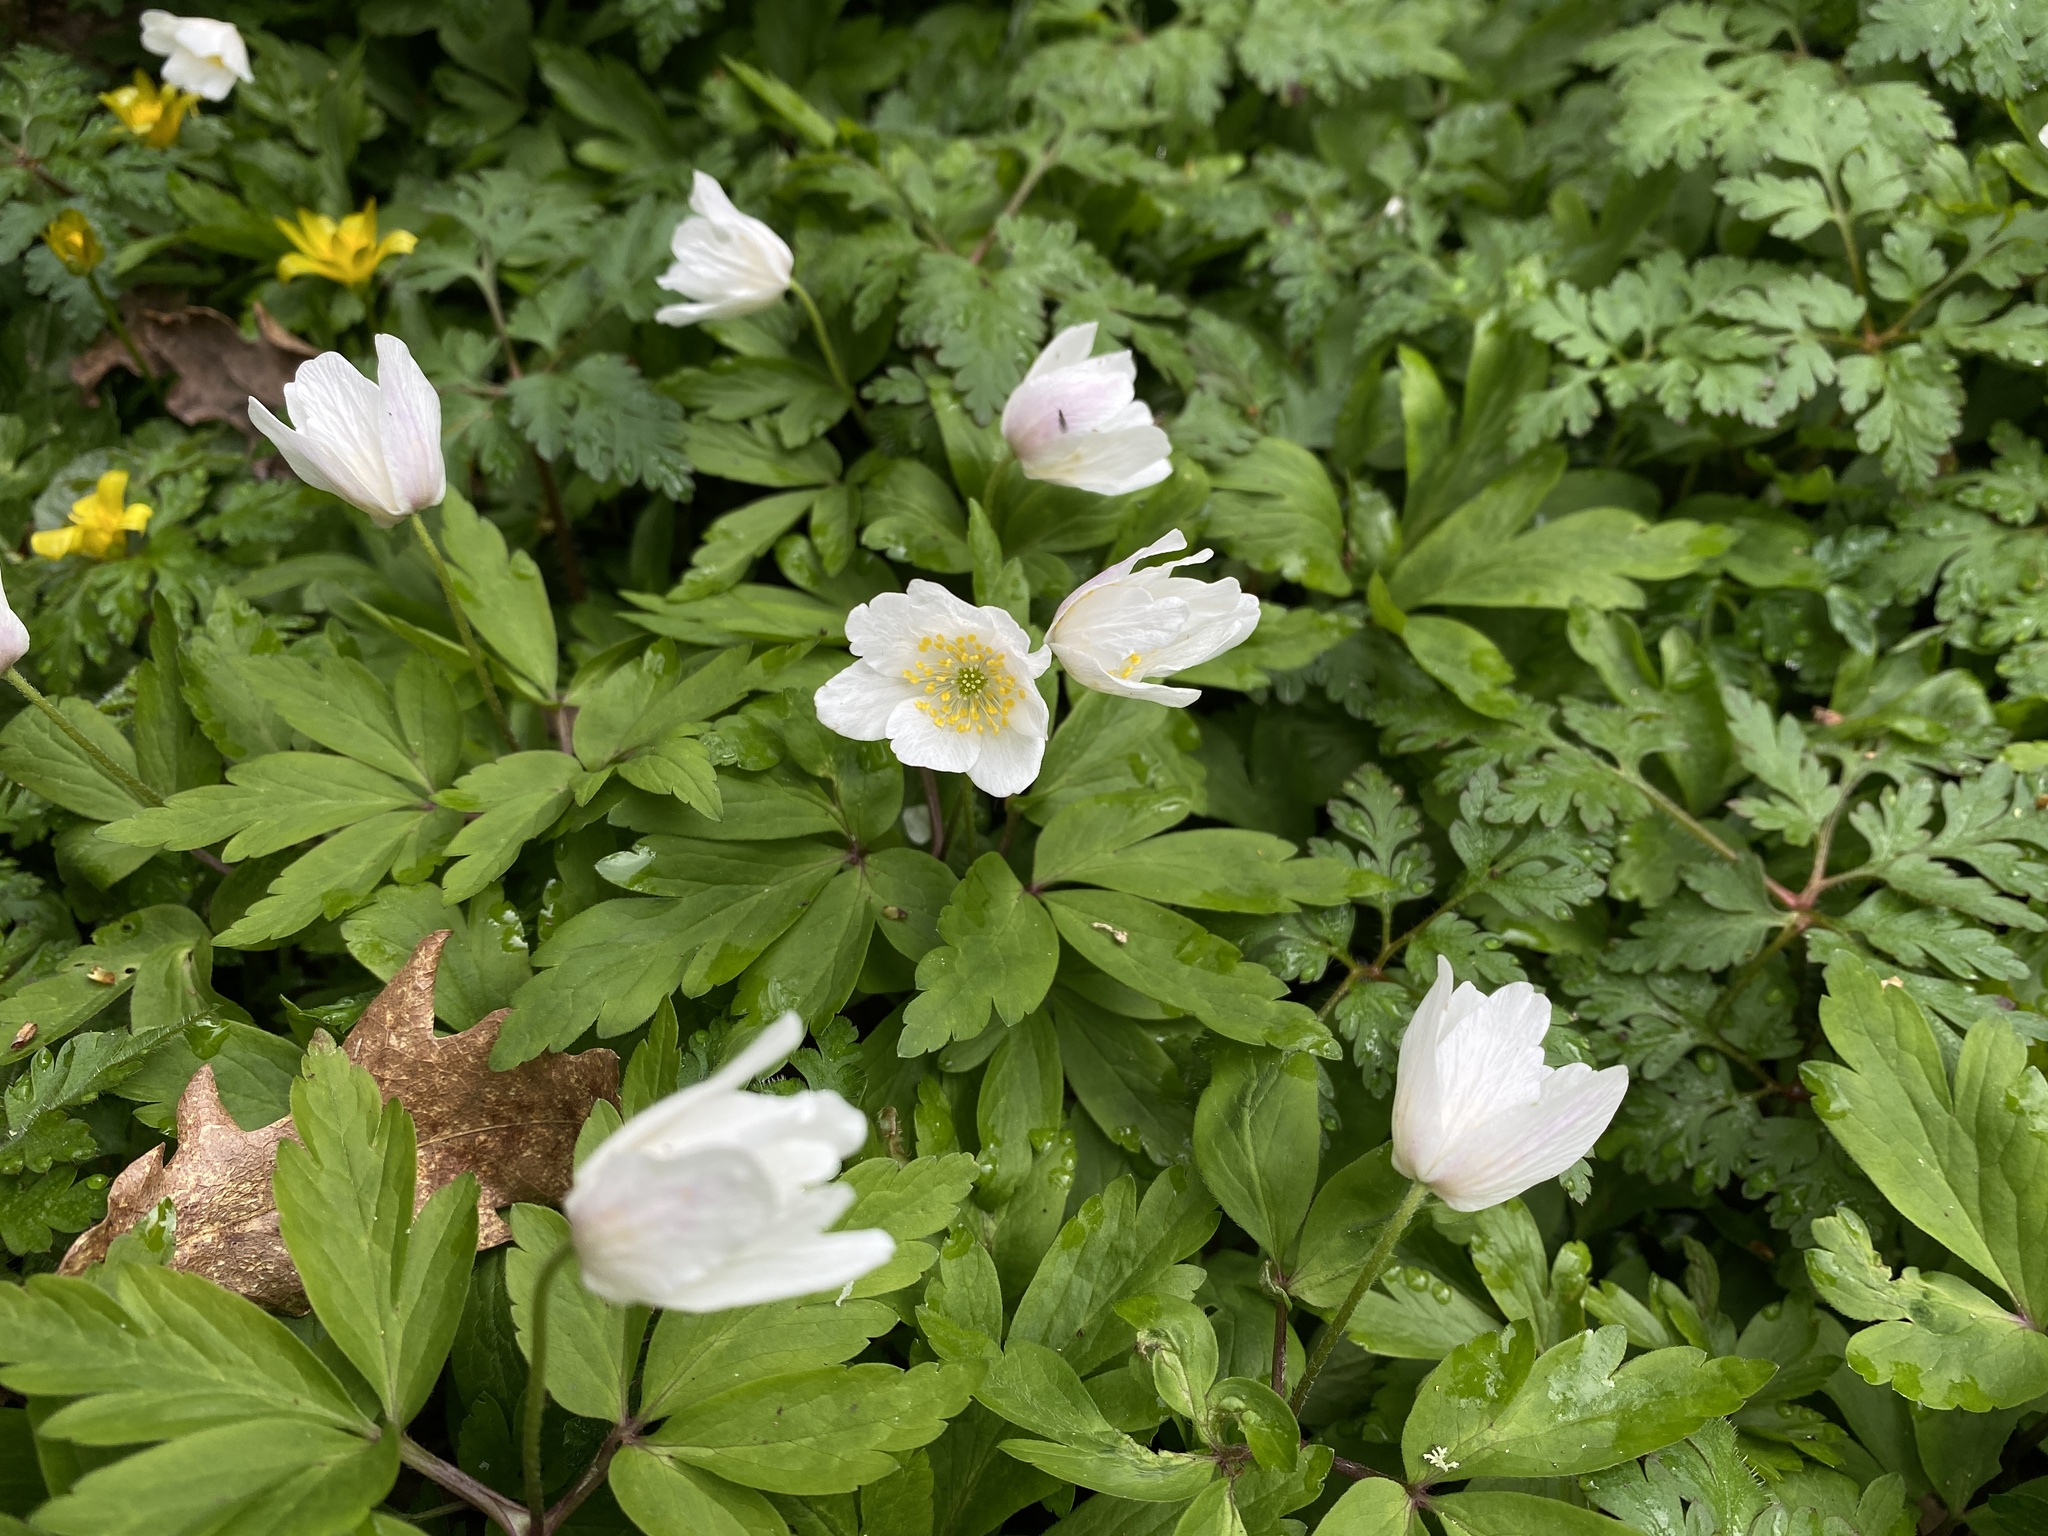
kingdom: Plantae
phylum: Tracheophyta
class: Magnoliopsida
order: Ranunculales
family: Ranunculaceae
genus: Anemone
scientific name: Anemone nemorosa
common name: Wood anemone
